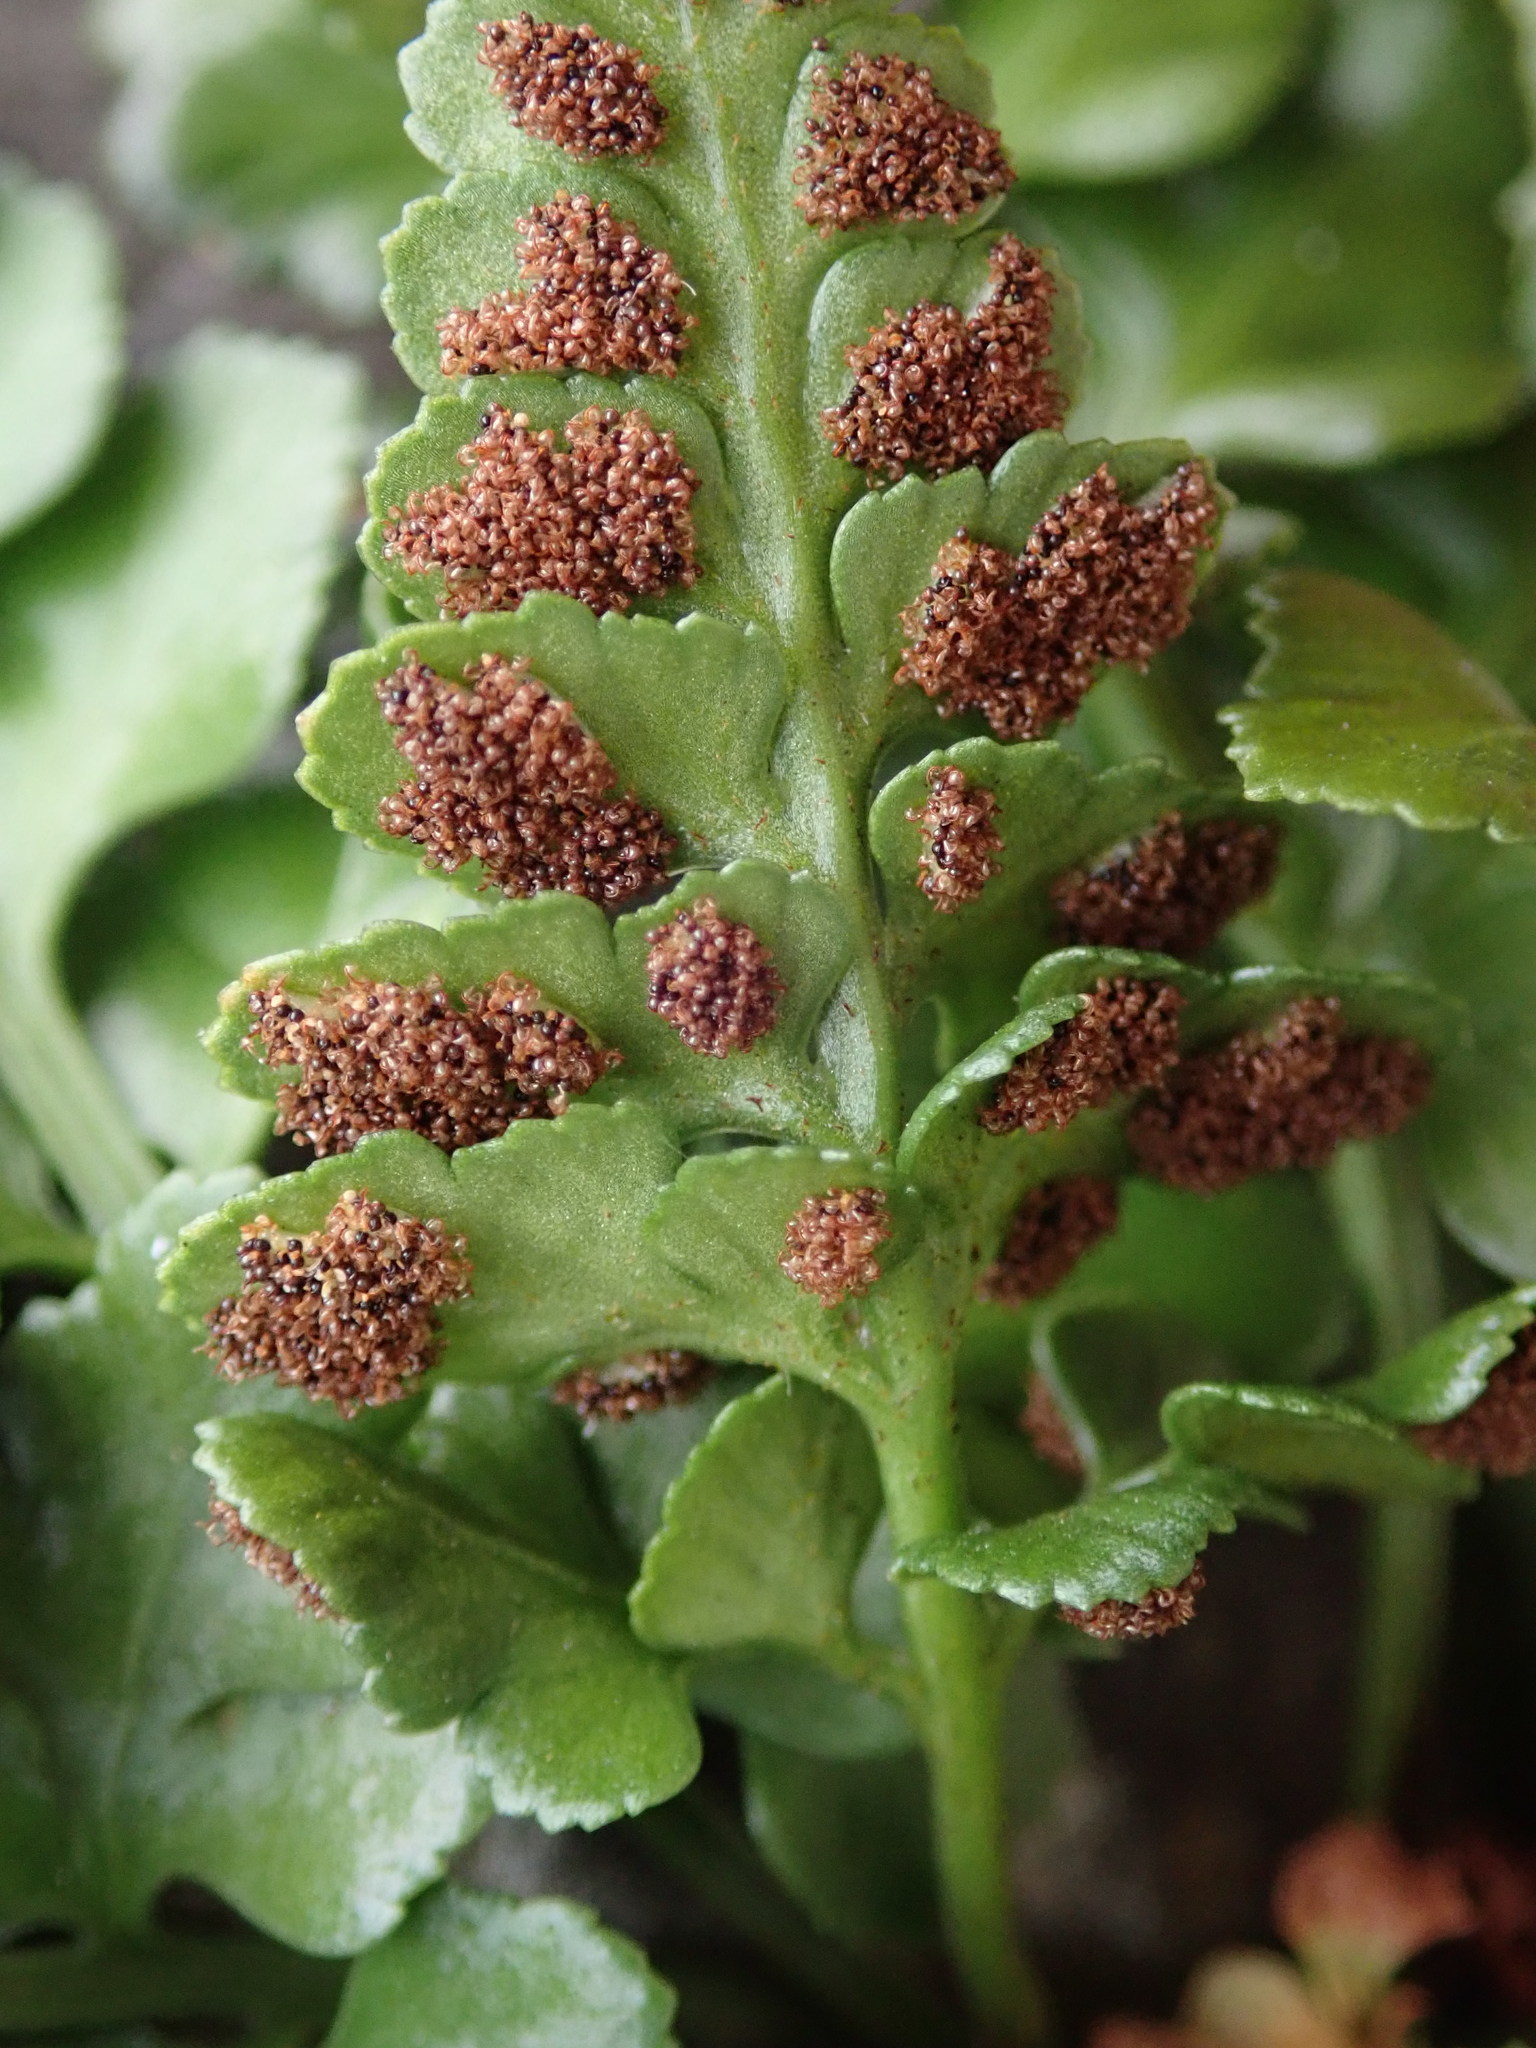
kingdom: Plantae
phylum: Tracheophyta
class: Polypodiopsida
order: Polypodiales
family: Aspleniaceae
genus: Asplenium
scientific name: Asplenium adiantum-nigrum
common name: Black spleenwort
